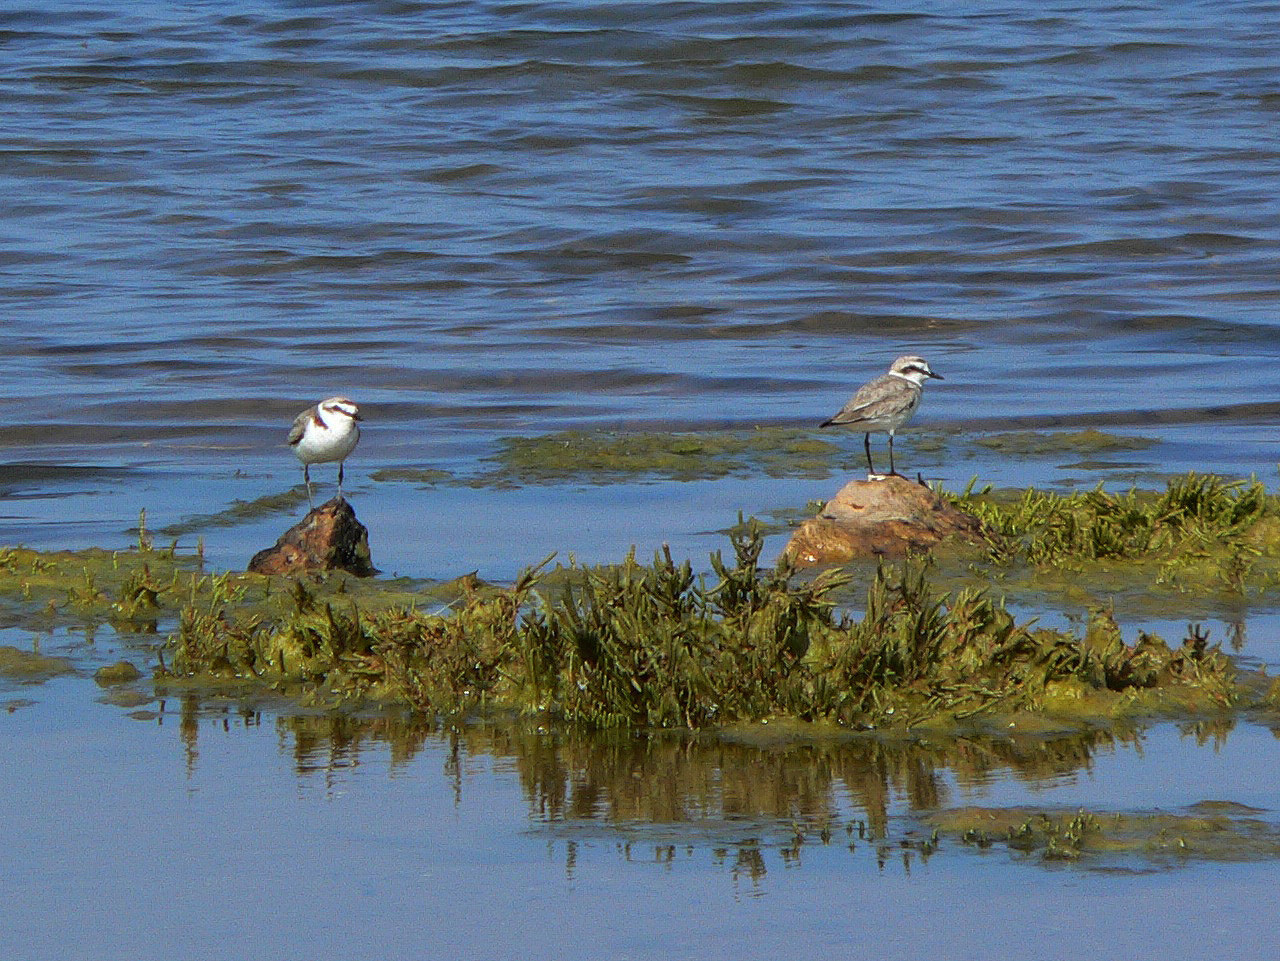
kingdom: Animalia
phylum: Chordata
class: Aves
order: Charadriiformes
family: Charadriidae
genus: Charadrius
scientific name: Charadrius alexandrinus
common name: Kentish plover
